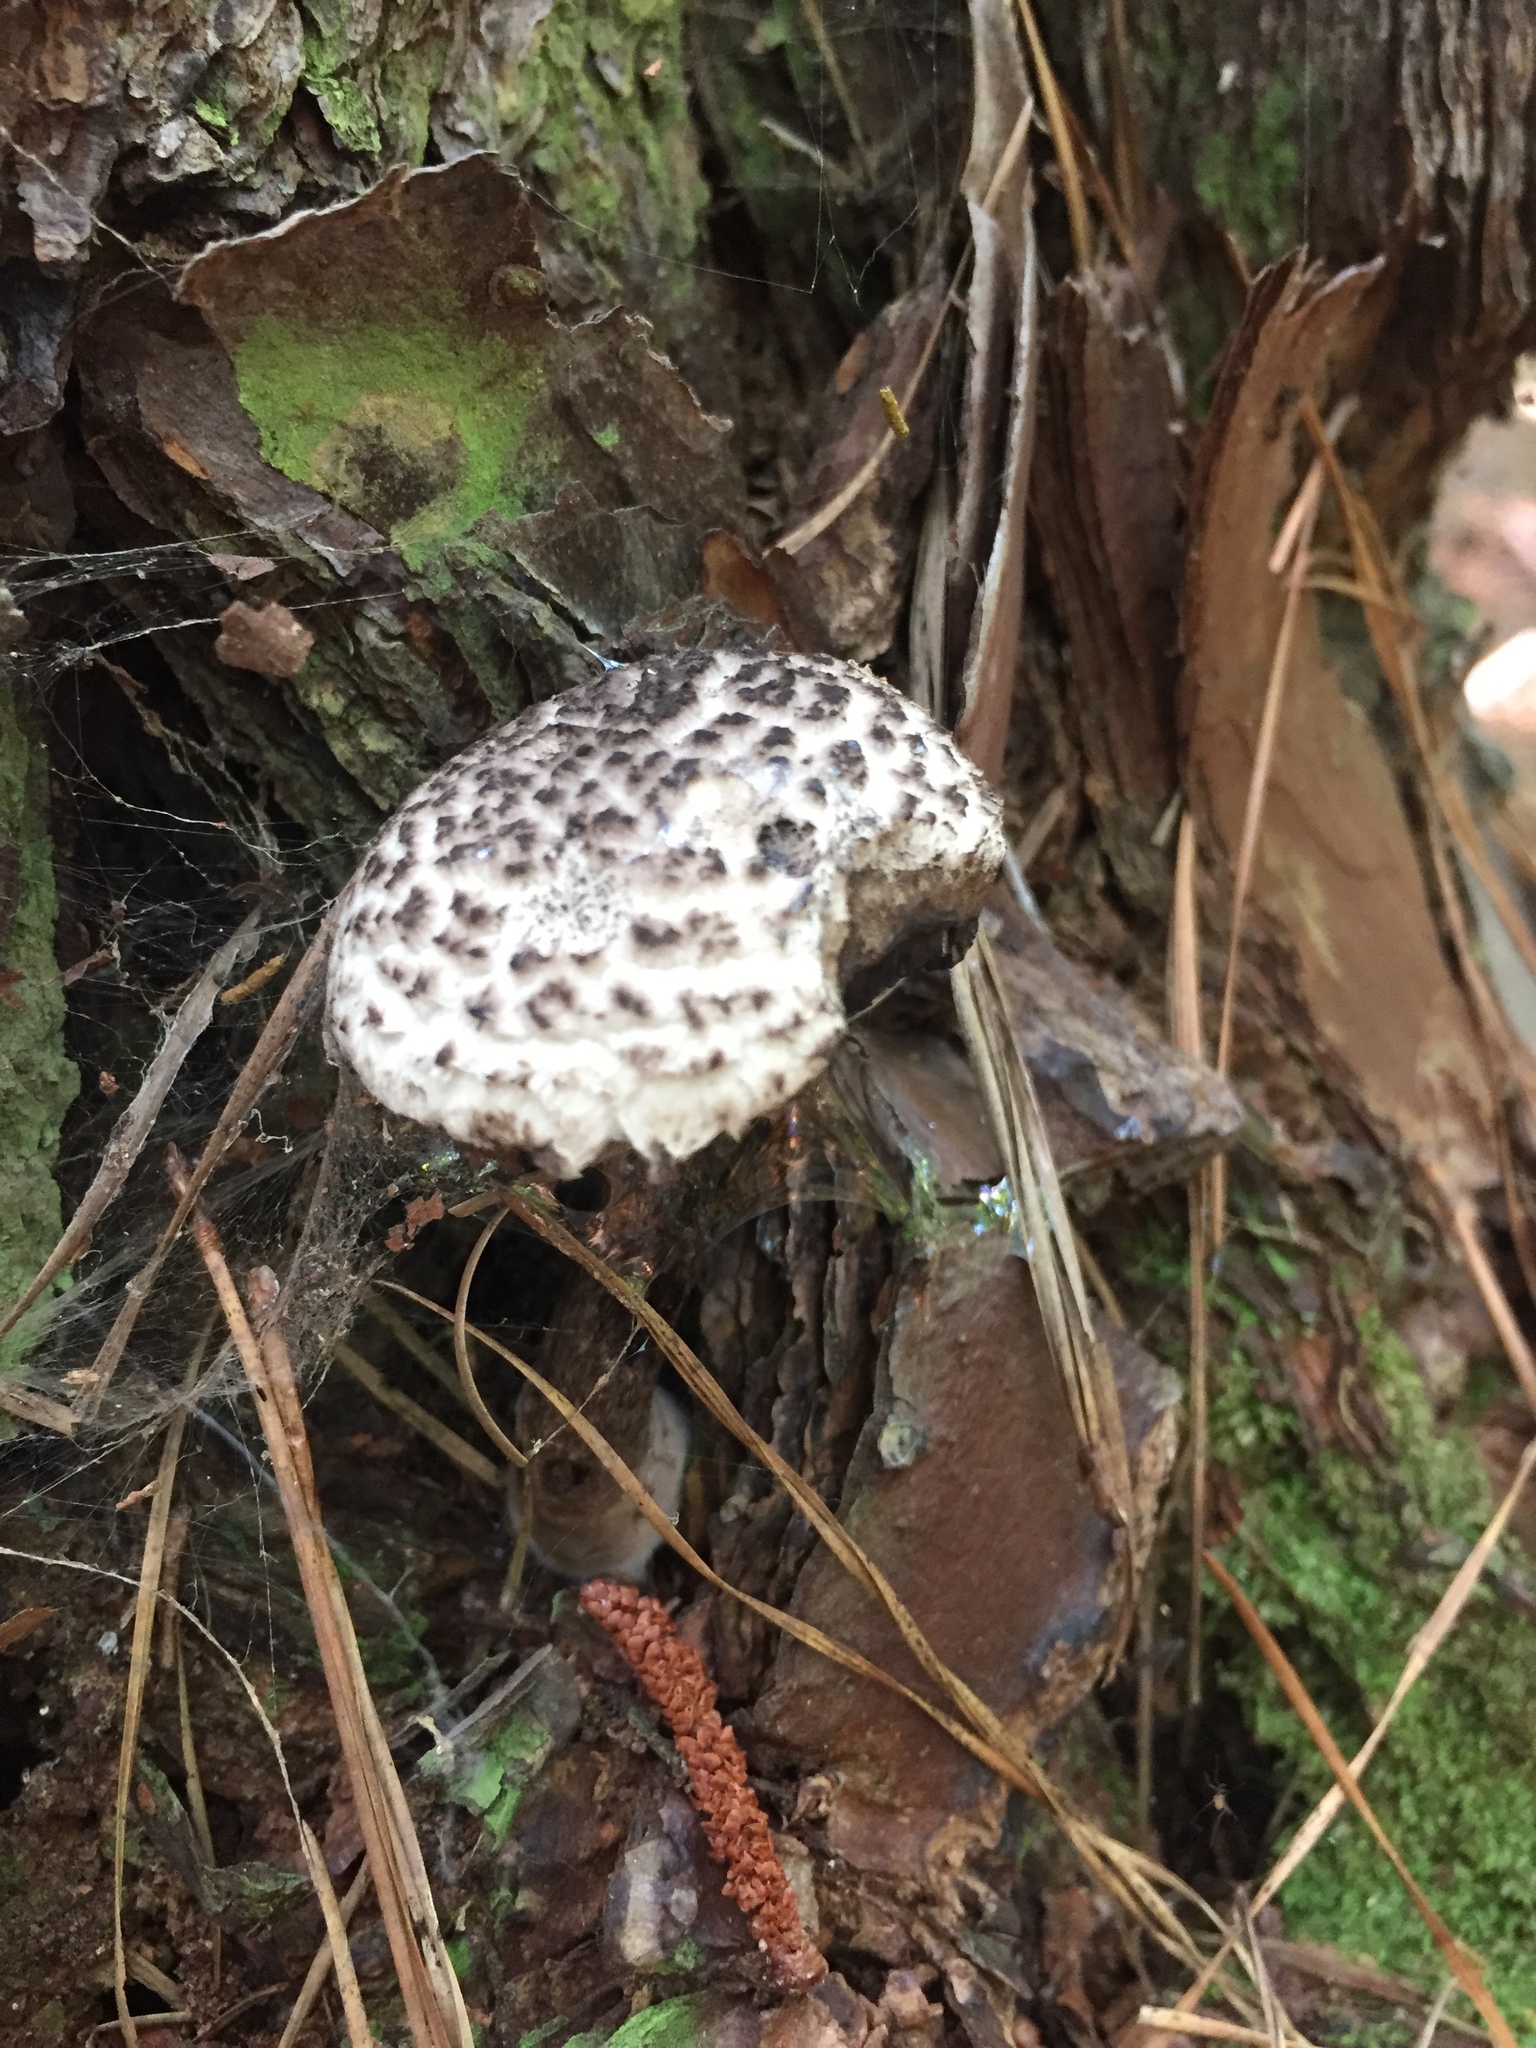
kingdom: Fungi
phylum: Basidiomycota
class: Agaricomycetes
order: Boletales
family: Boletaceae
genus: Strobilomyces
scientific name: Strobilomyces strobilaceus
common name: Old man of the woods
